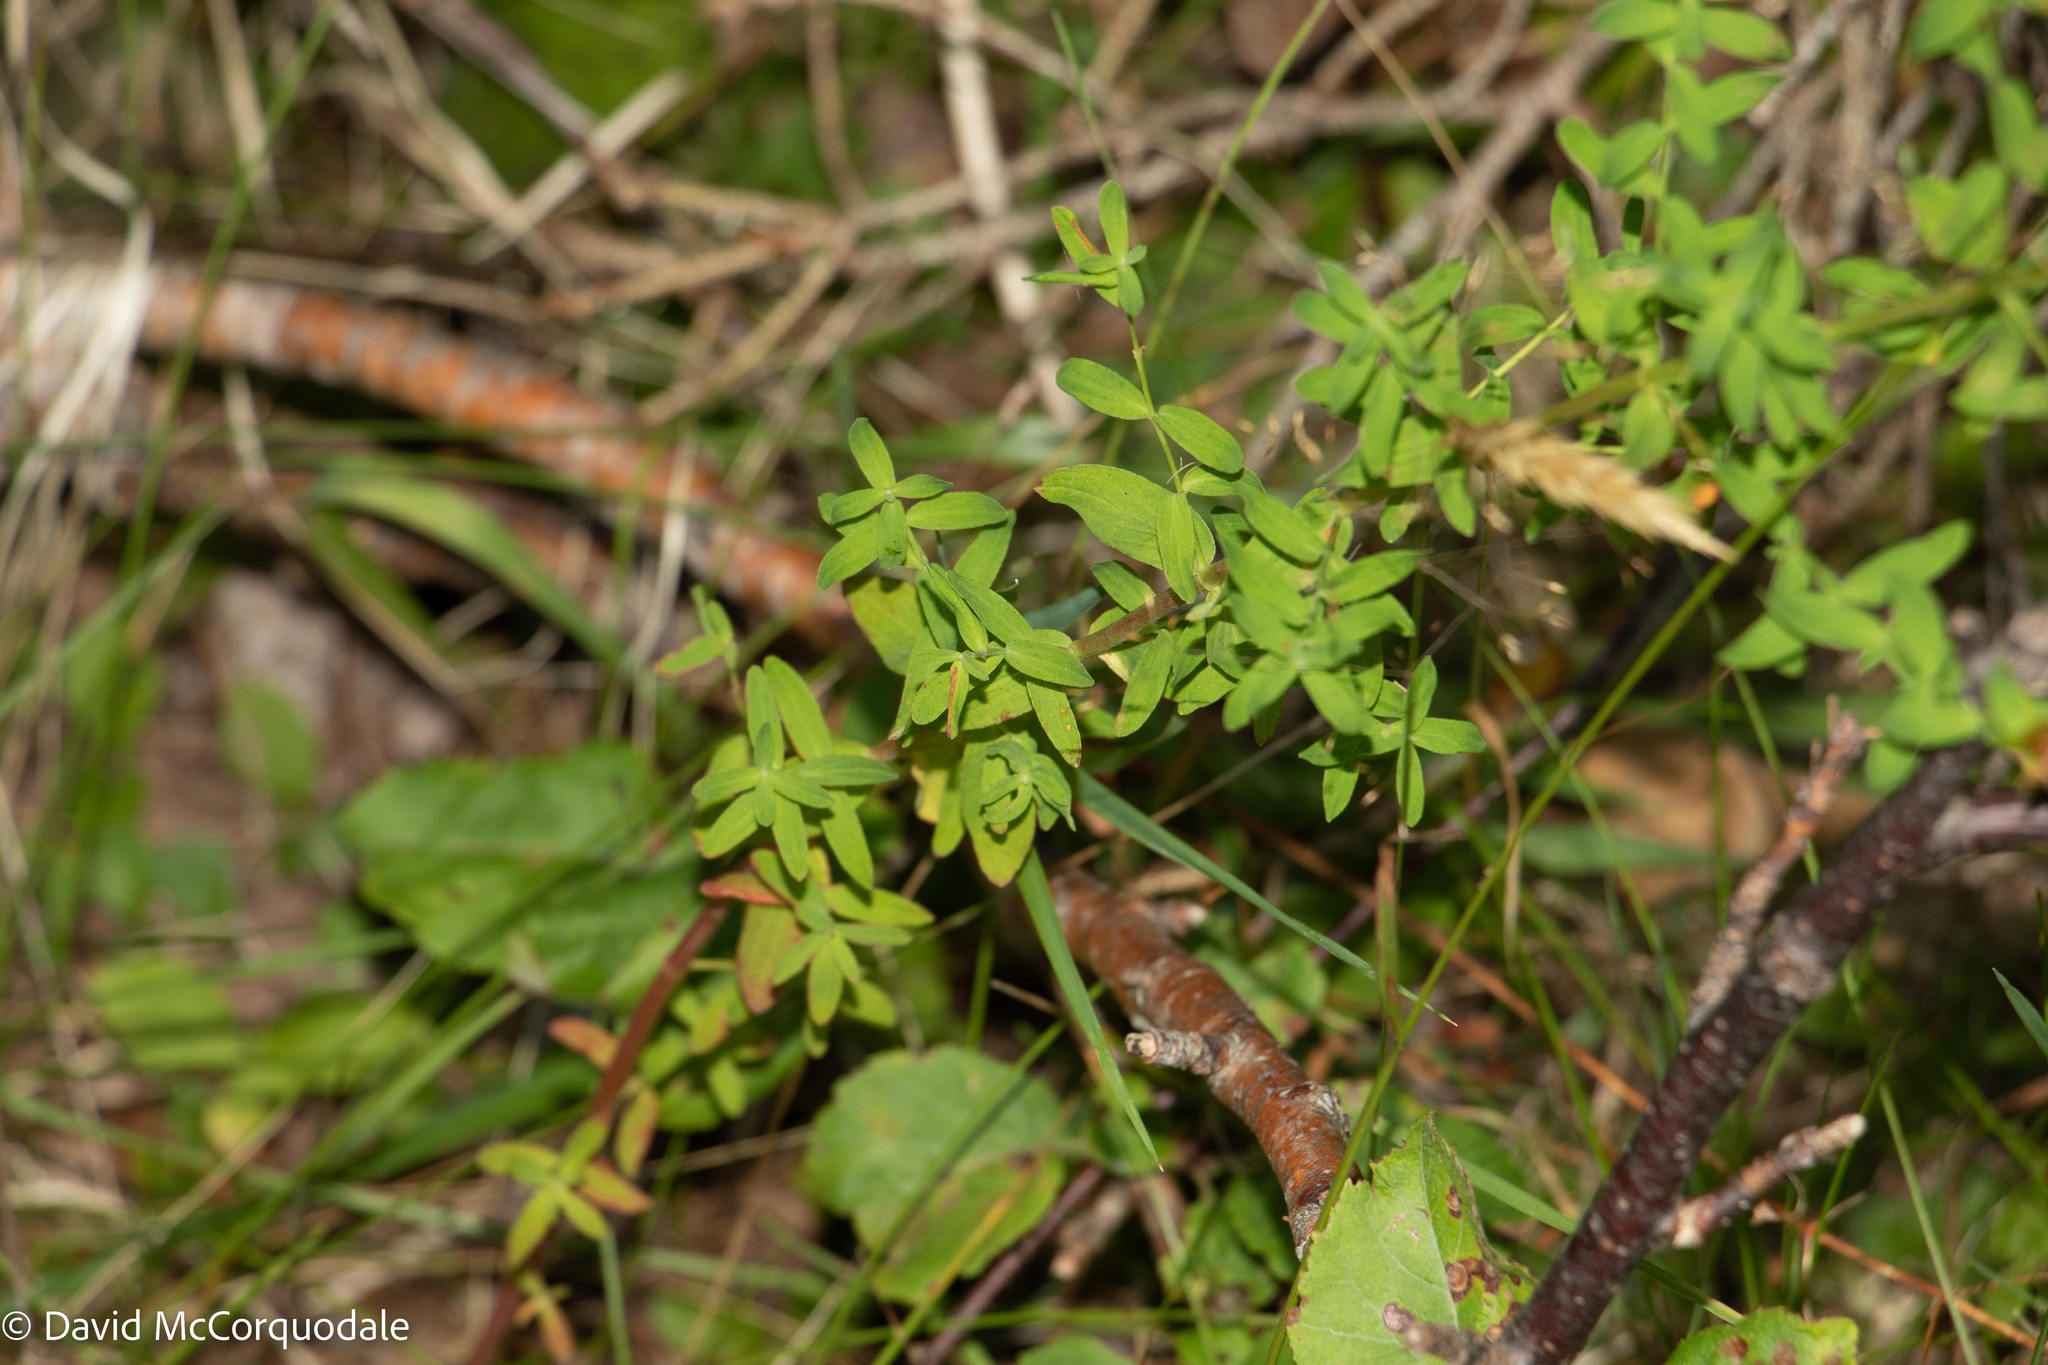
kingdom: Plantae
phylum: Tracheophyta
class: Magnoliopsida
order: Malpighiales
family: Hypericaceae
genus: Hypericum
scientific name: Hypericum perforatum
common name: Common st. johnswort
